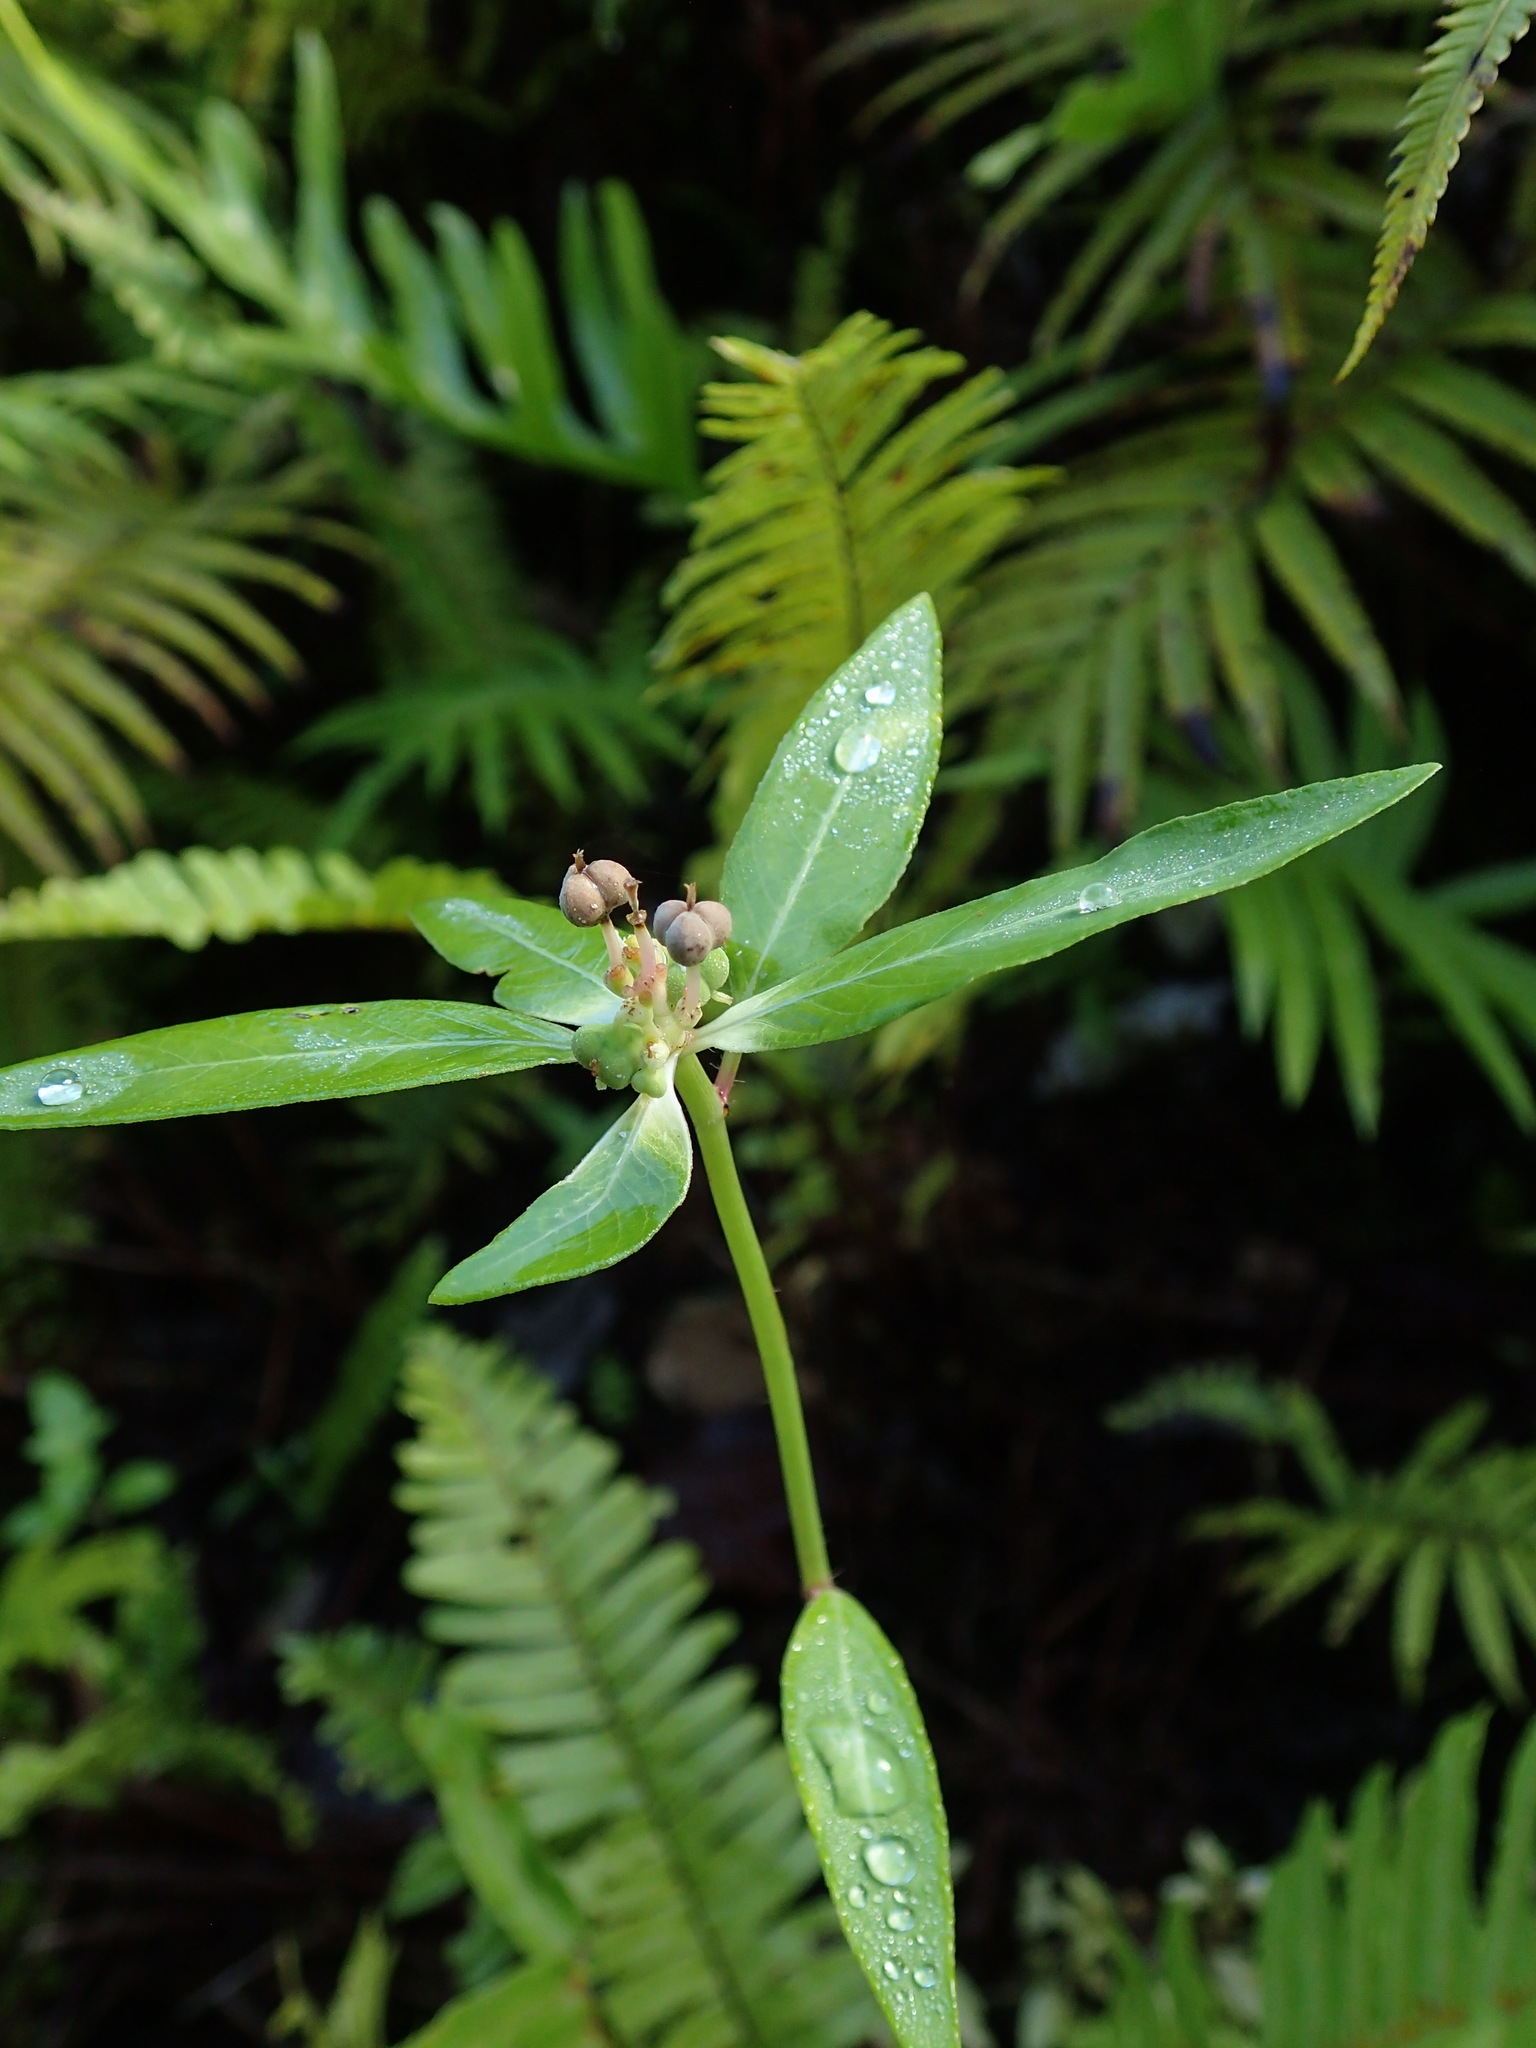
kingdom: Plantae
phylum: Tracheophyta
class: Magnoliopsida
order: Malpighiales
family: Euphorbiaceae
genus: Euphorbia
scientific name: Euphorbia heterophylla
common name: Mexican fireplant
